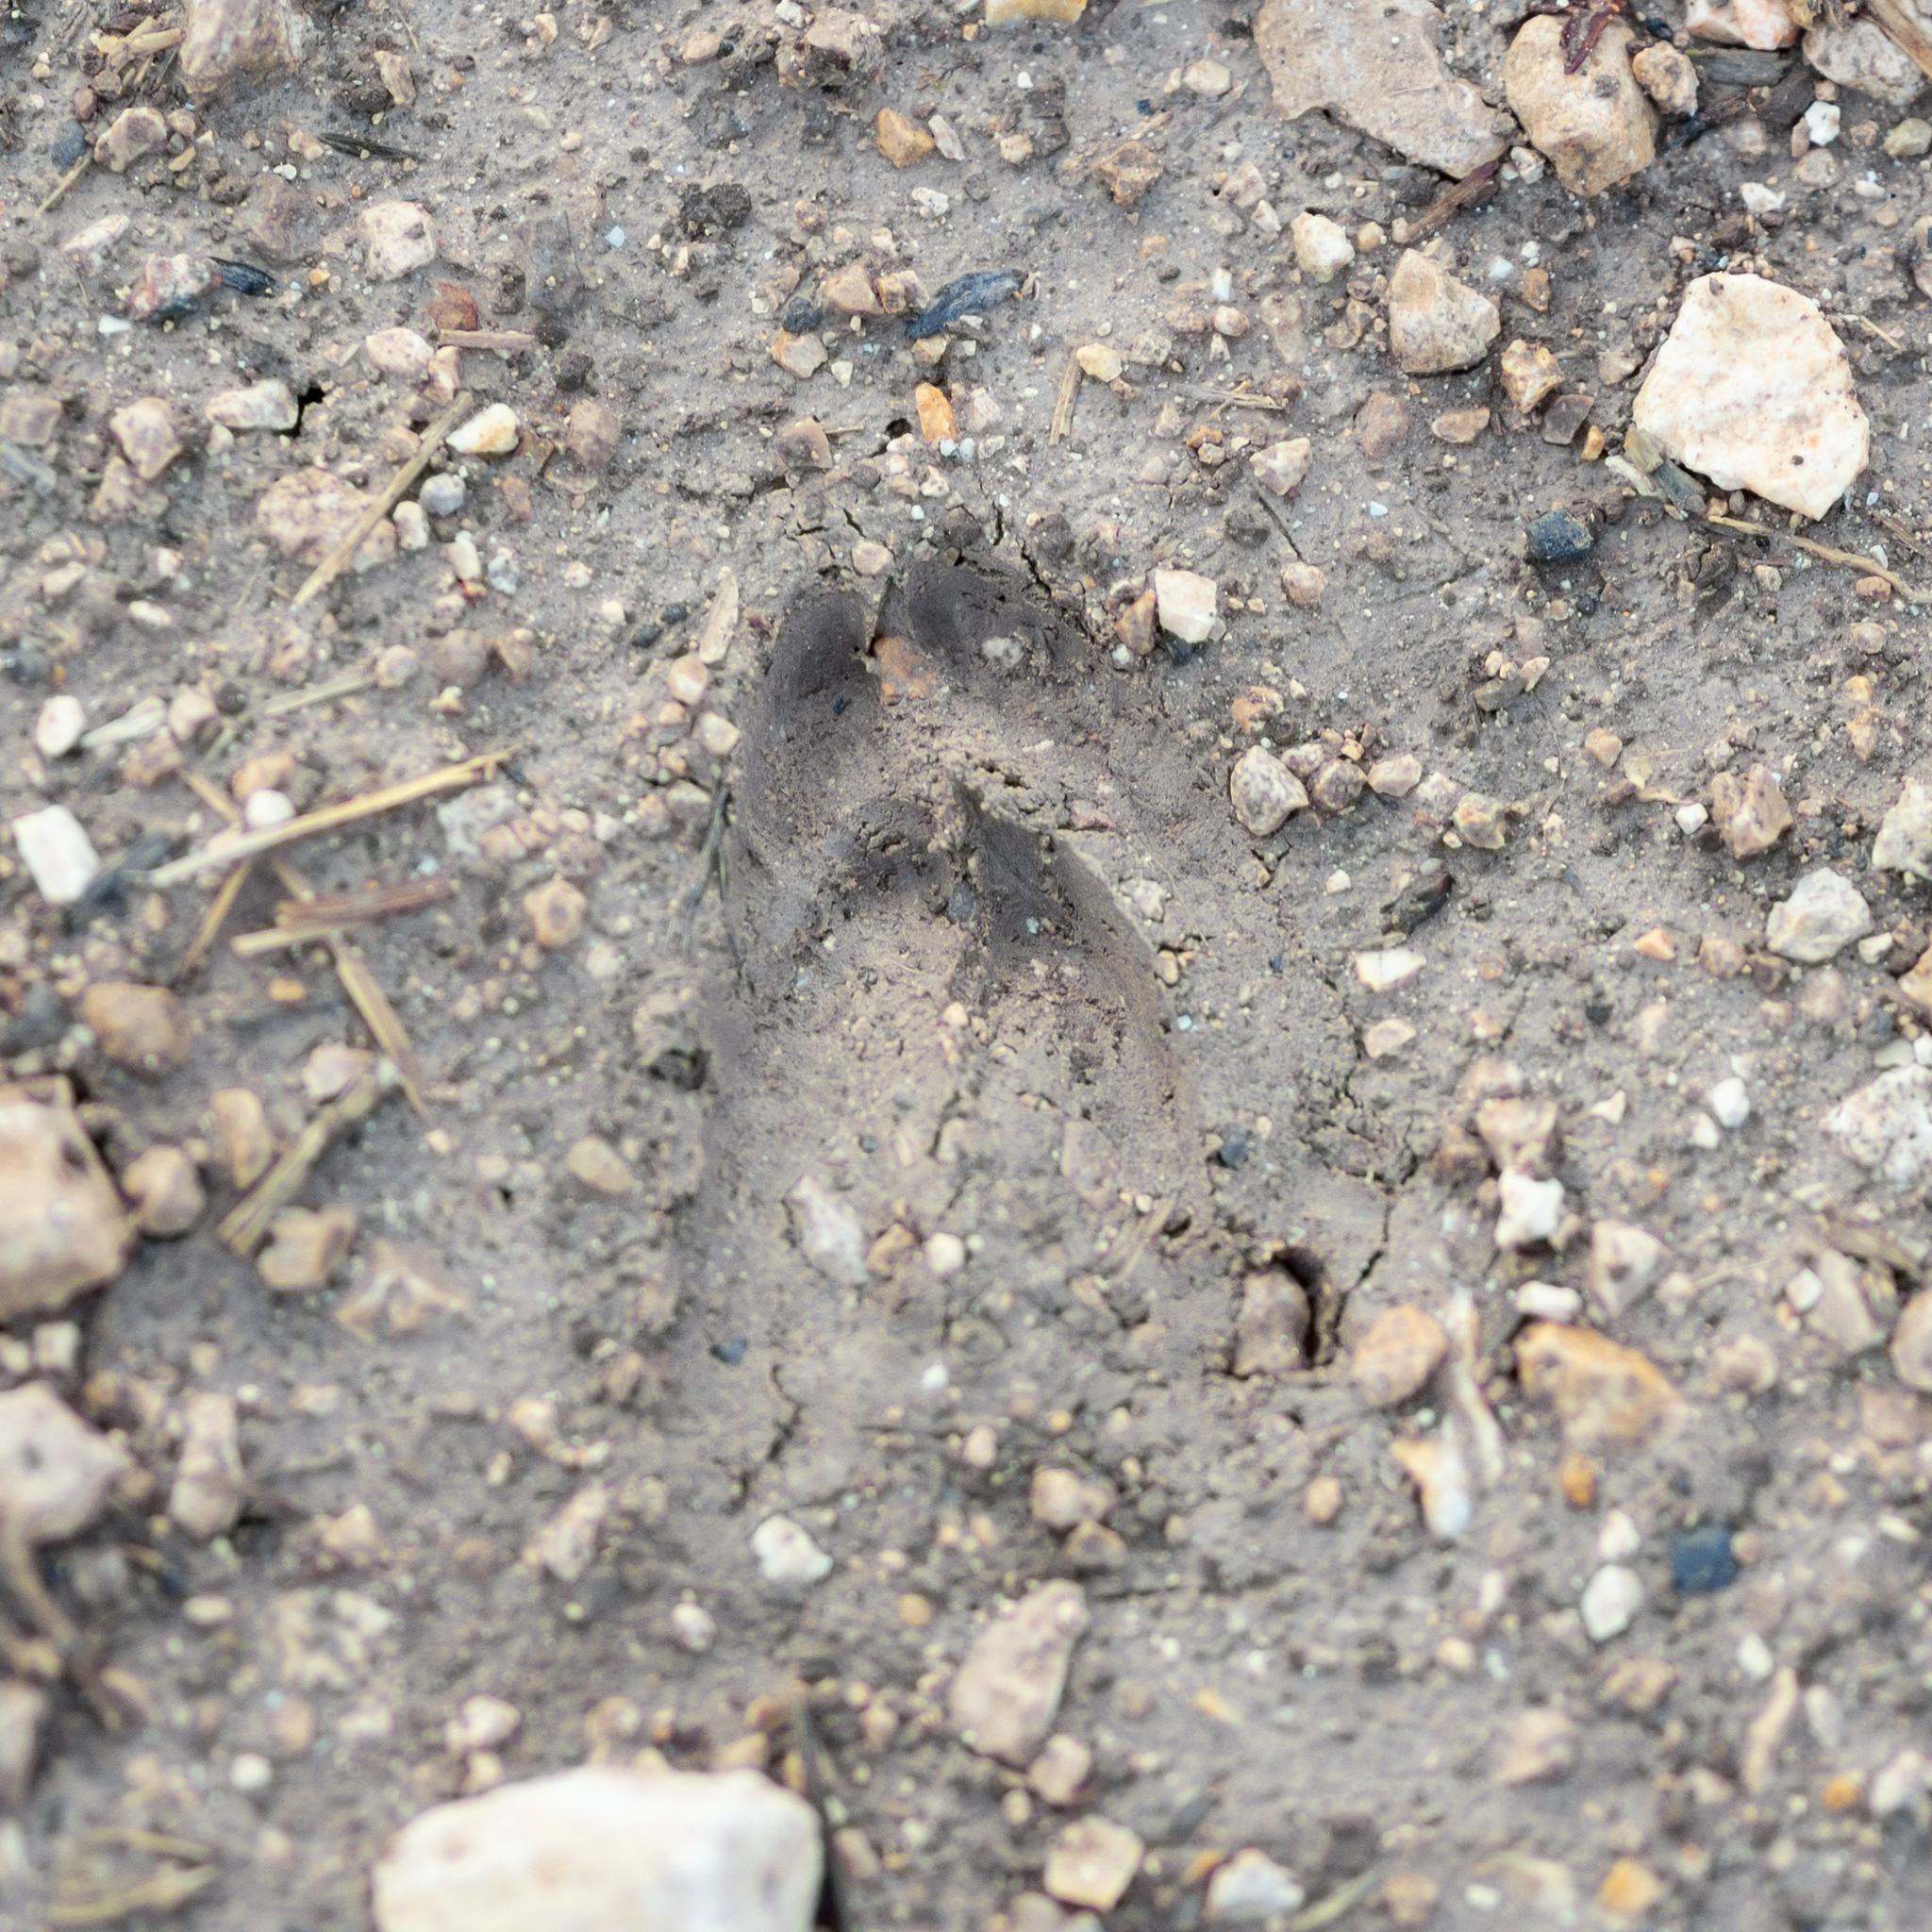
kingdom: Animalia
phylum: Chordata
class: Mammalia
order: Artiodactyla
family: Cervidae
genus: Capreolus
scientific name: Capreolus capreolus
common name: Western roe deer
